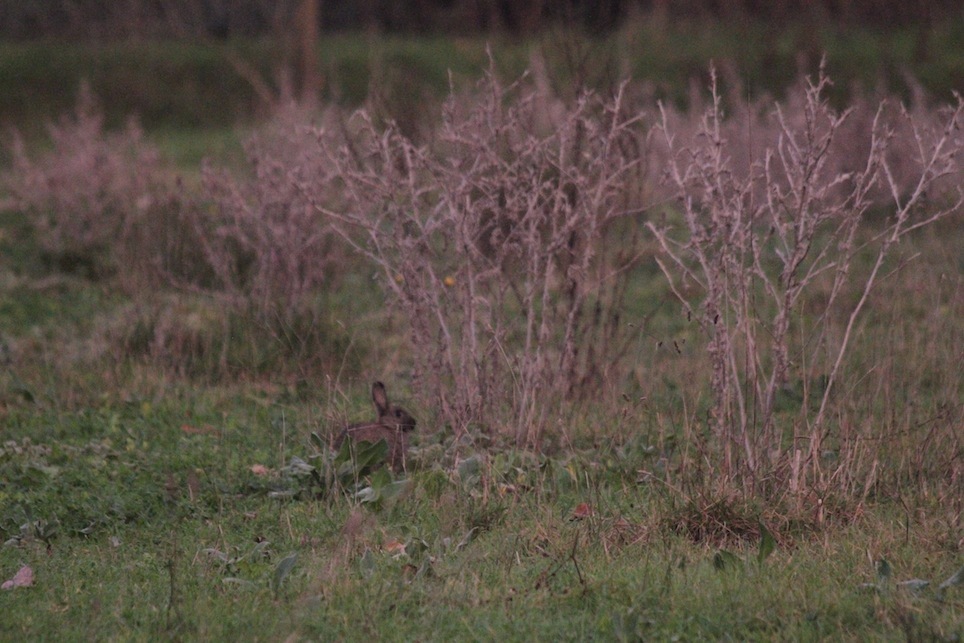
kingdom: Animalia
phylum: Chordata
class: Mammalia
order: Lagomorpha
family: Leporidae
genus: Oryctolagus
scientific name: Oryctolagus cuniculus
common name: European rabbit
